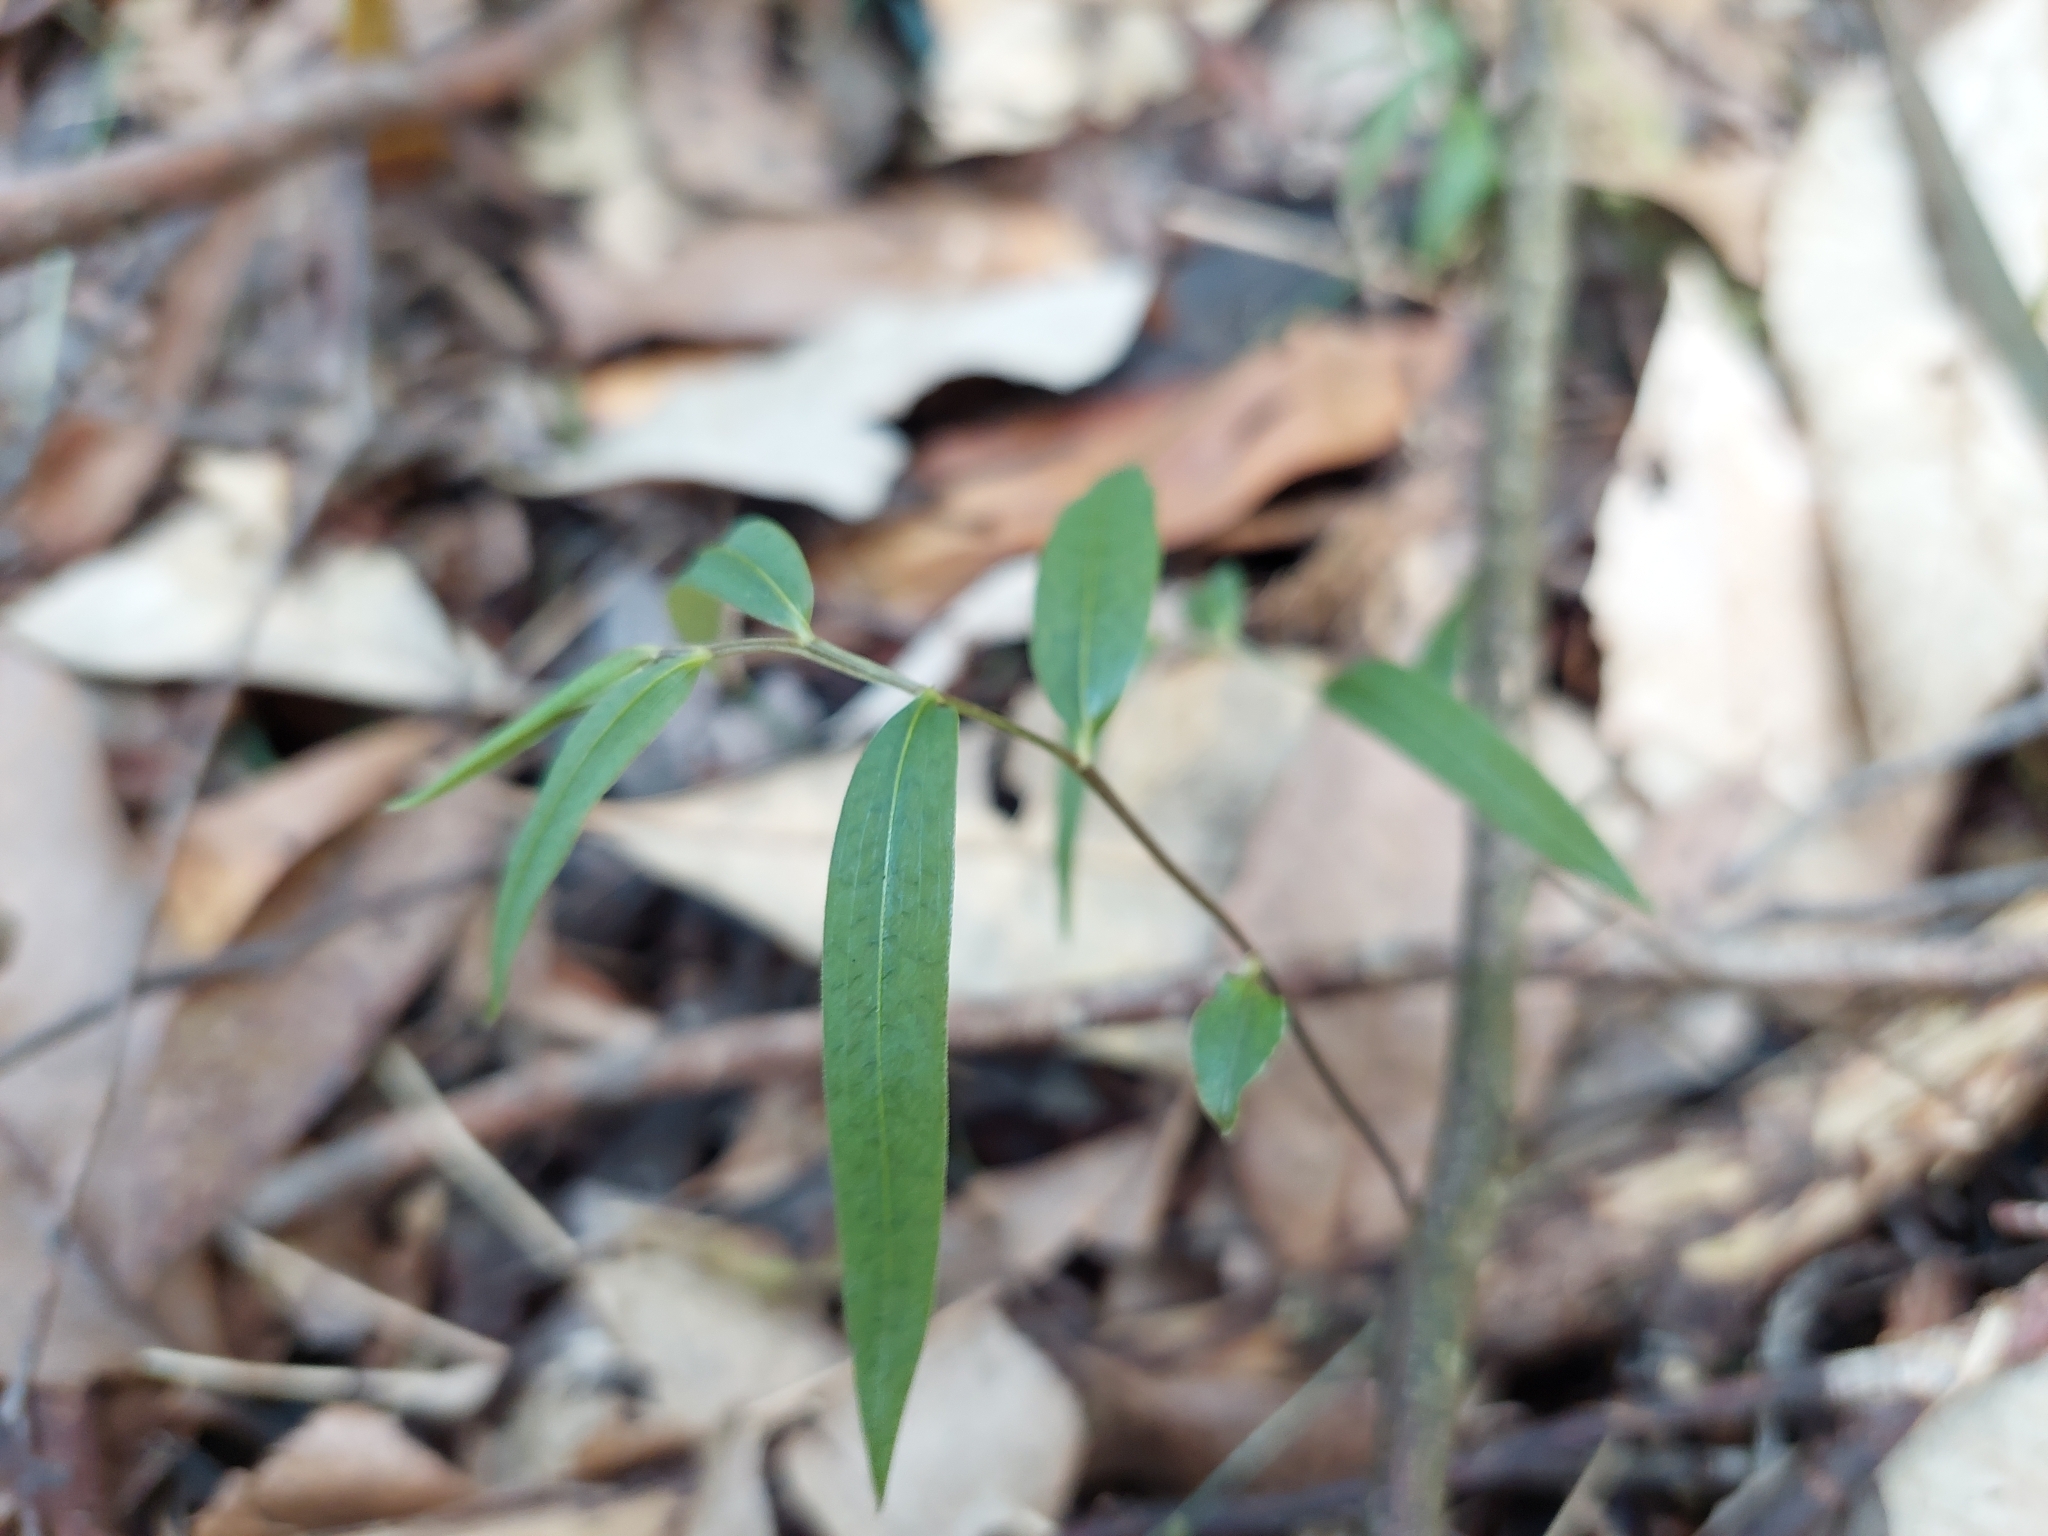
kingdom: Plantae
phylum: Tracheophyta
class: Liliopsida
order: Liliales
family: Alstroemeriaceae
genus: Drymophila
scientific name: Drymophila cyanocarpa
